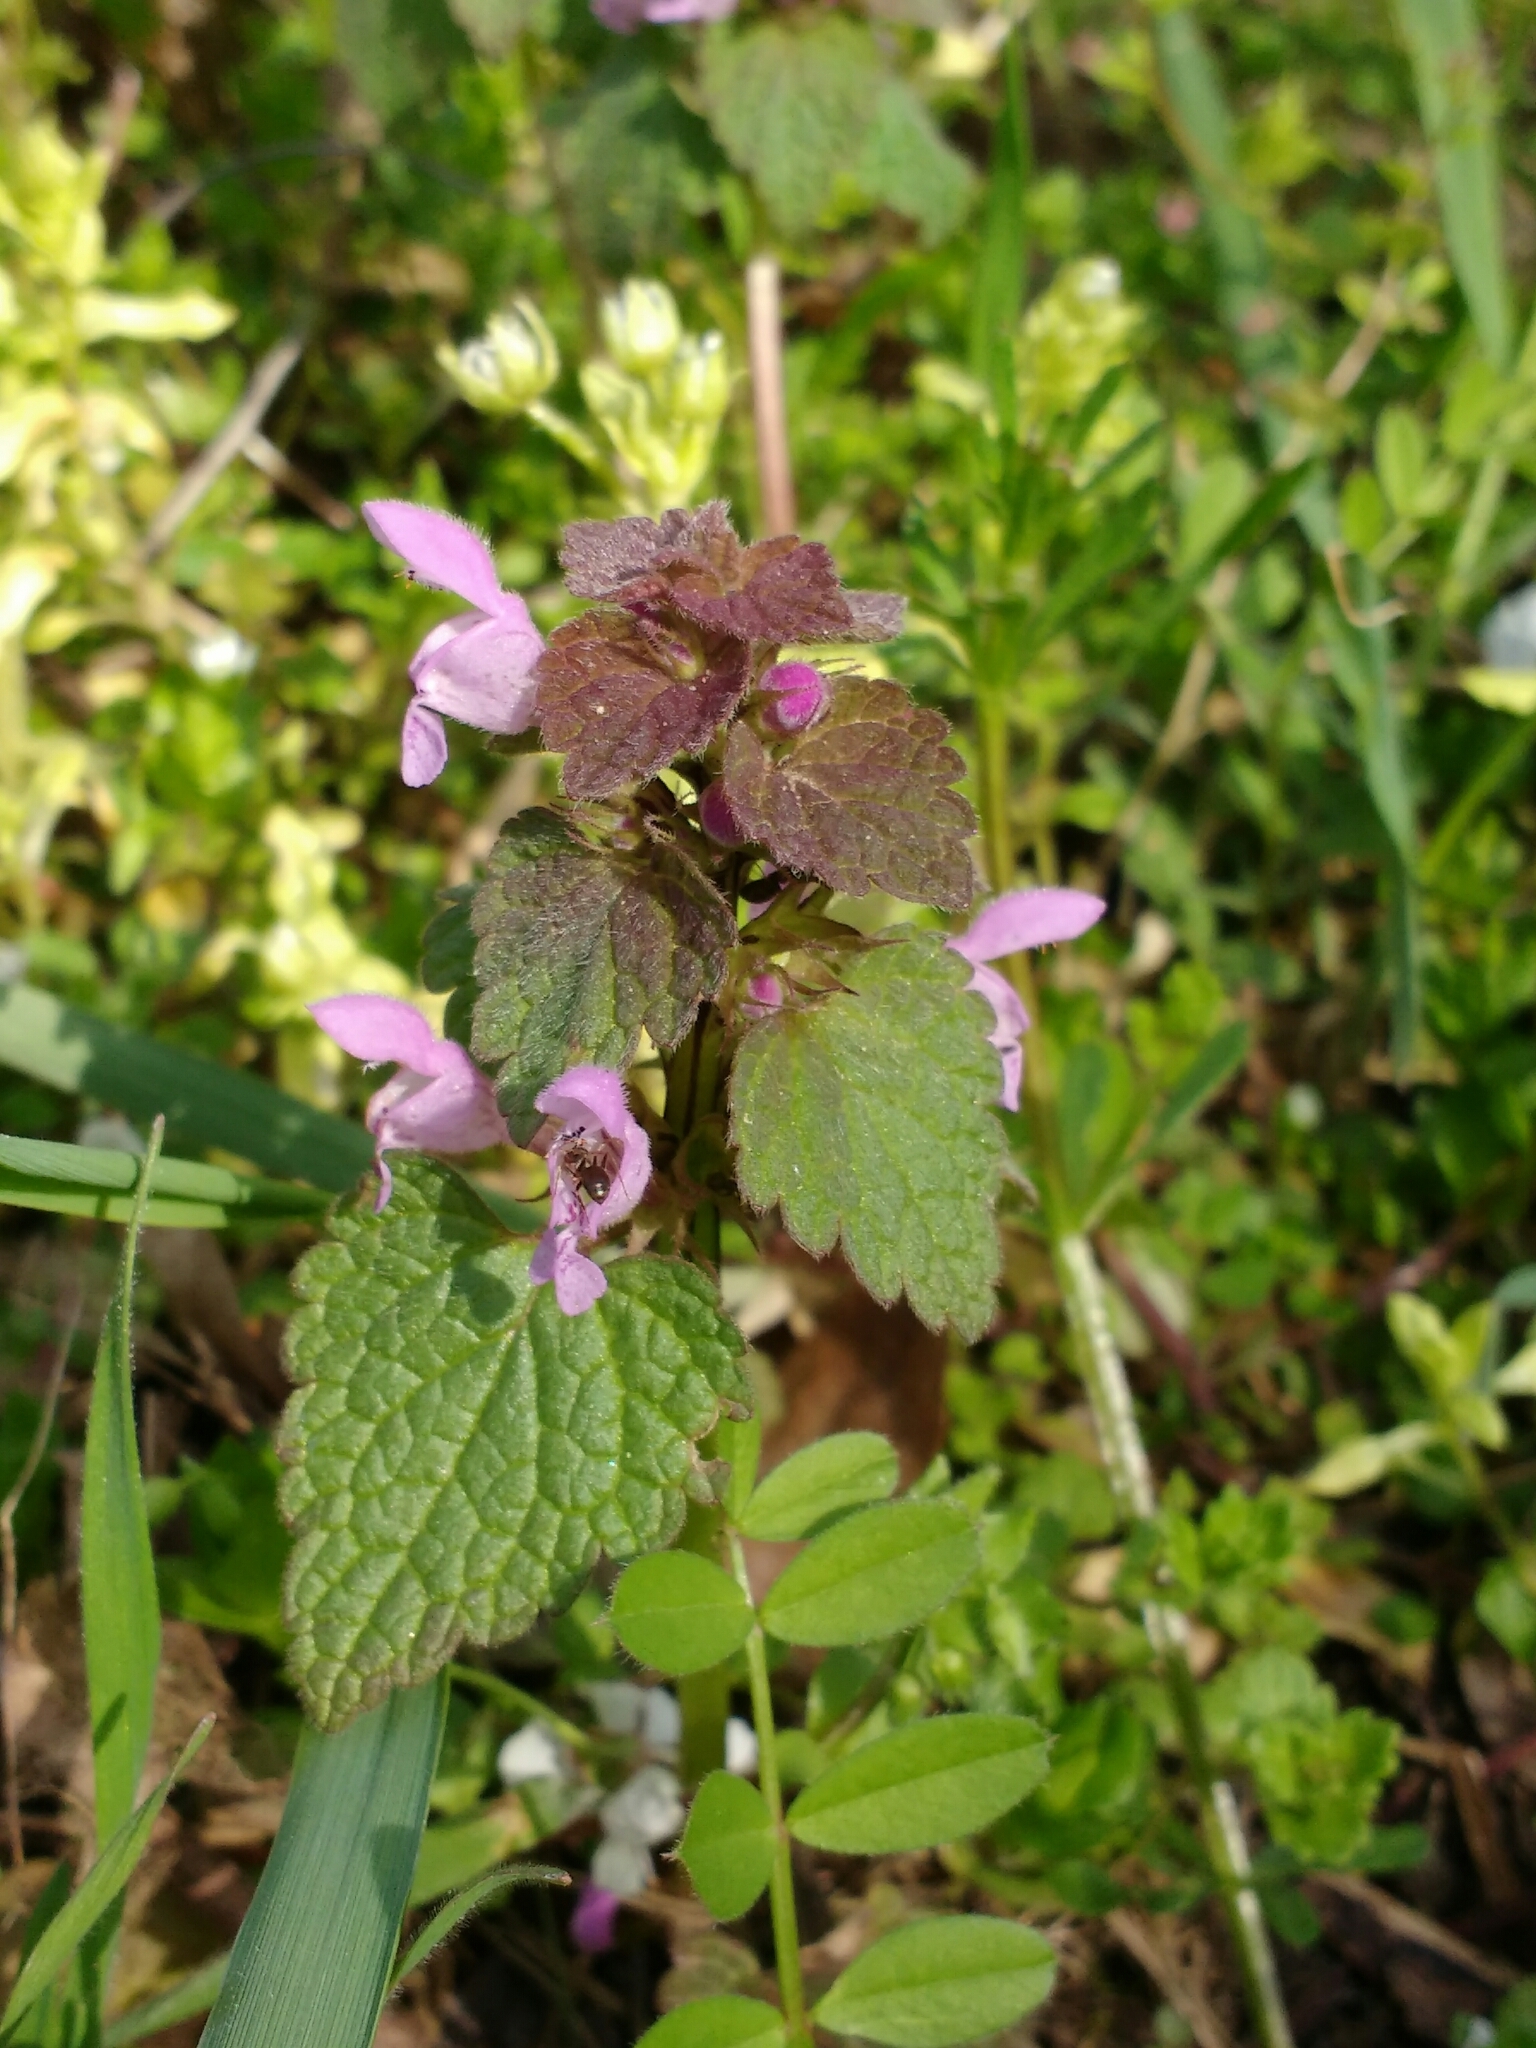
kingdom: Plantae
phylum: Tracheophyta
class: Magnoliopsida
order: Lamiales
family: Lamiaceae
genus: Lamium
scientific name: Lamium purpureum
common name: Red dead-nettle
